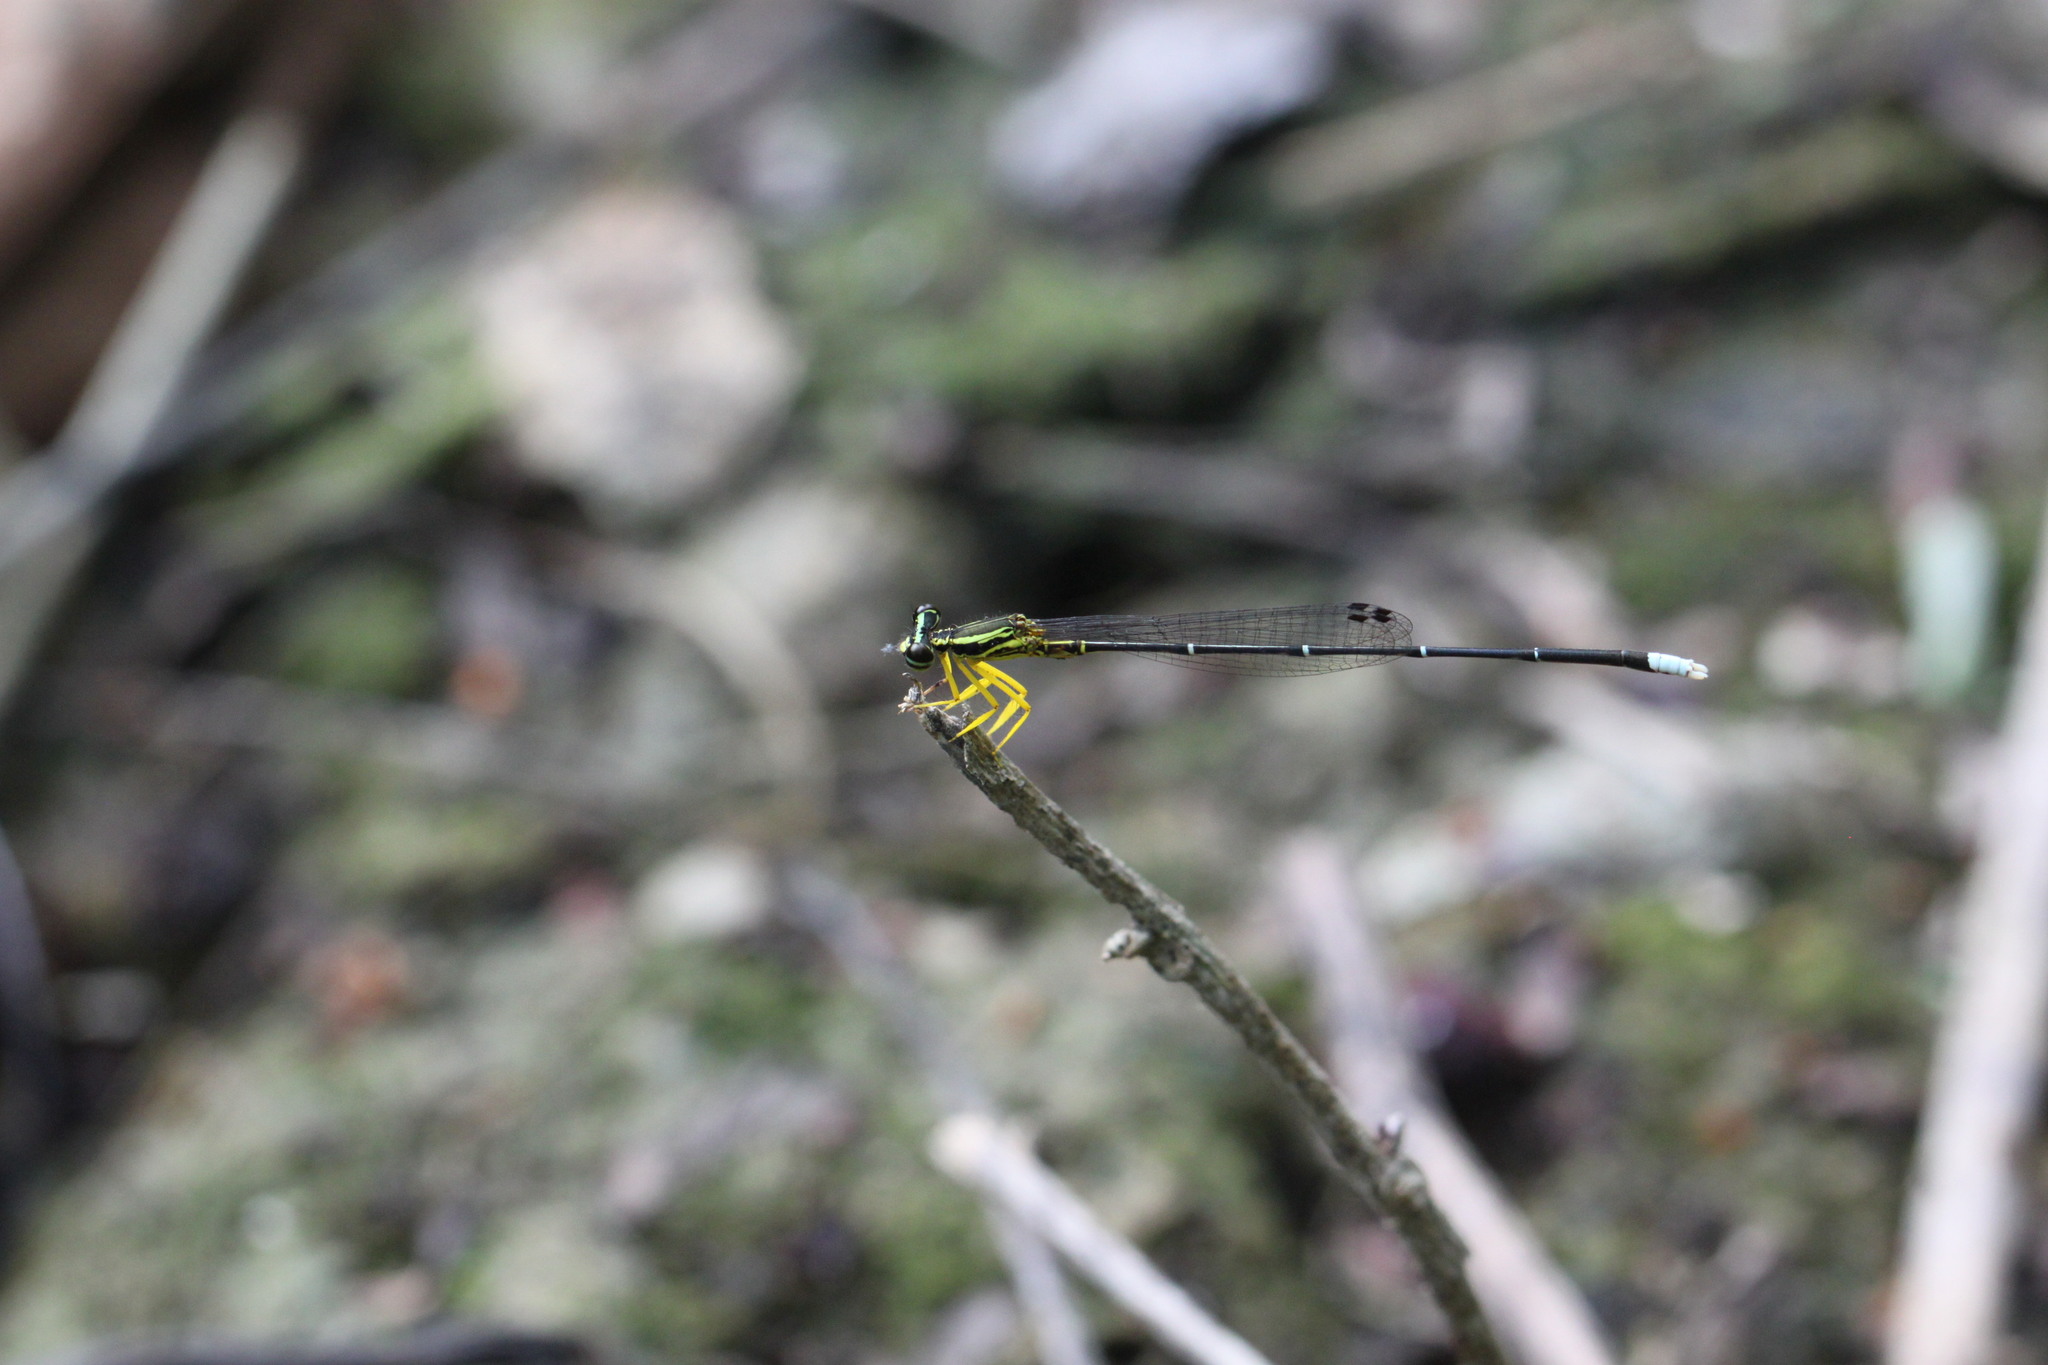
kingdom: Animalia
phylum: Arthropoda
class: Insecta
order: Odonata
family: Platycnemididae
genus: Copera
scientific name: Copera marginipes
